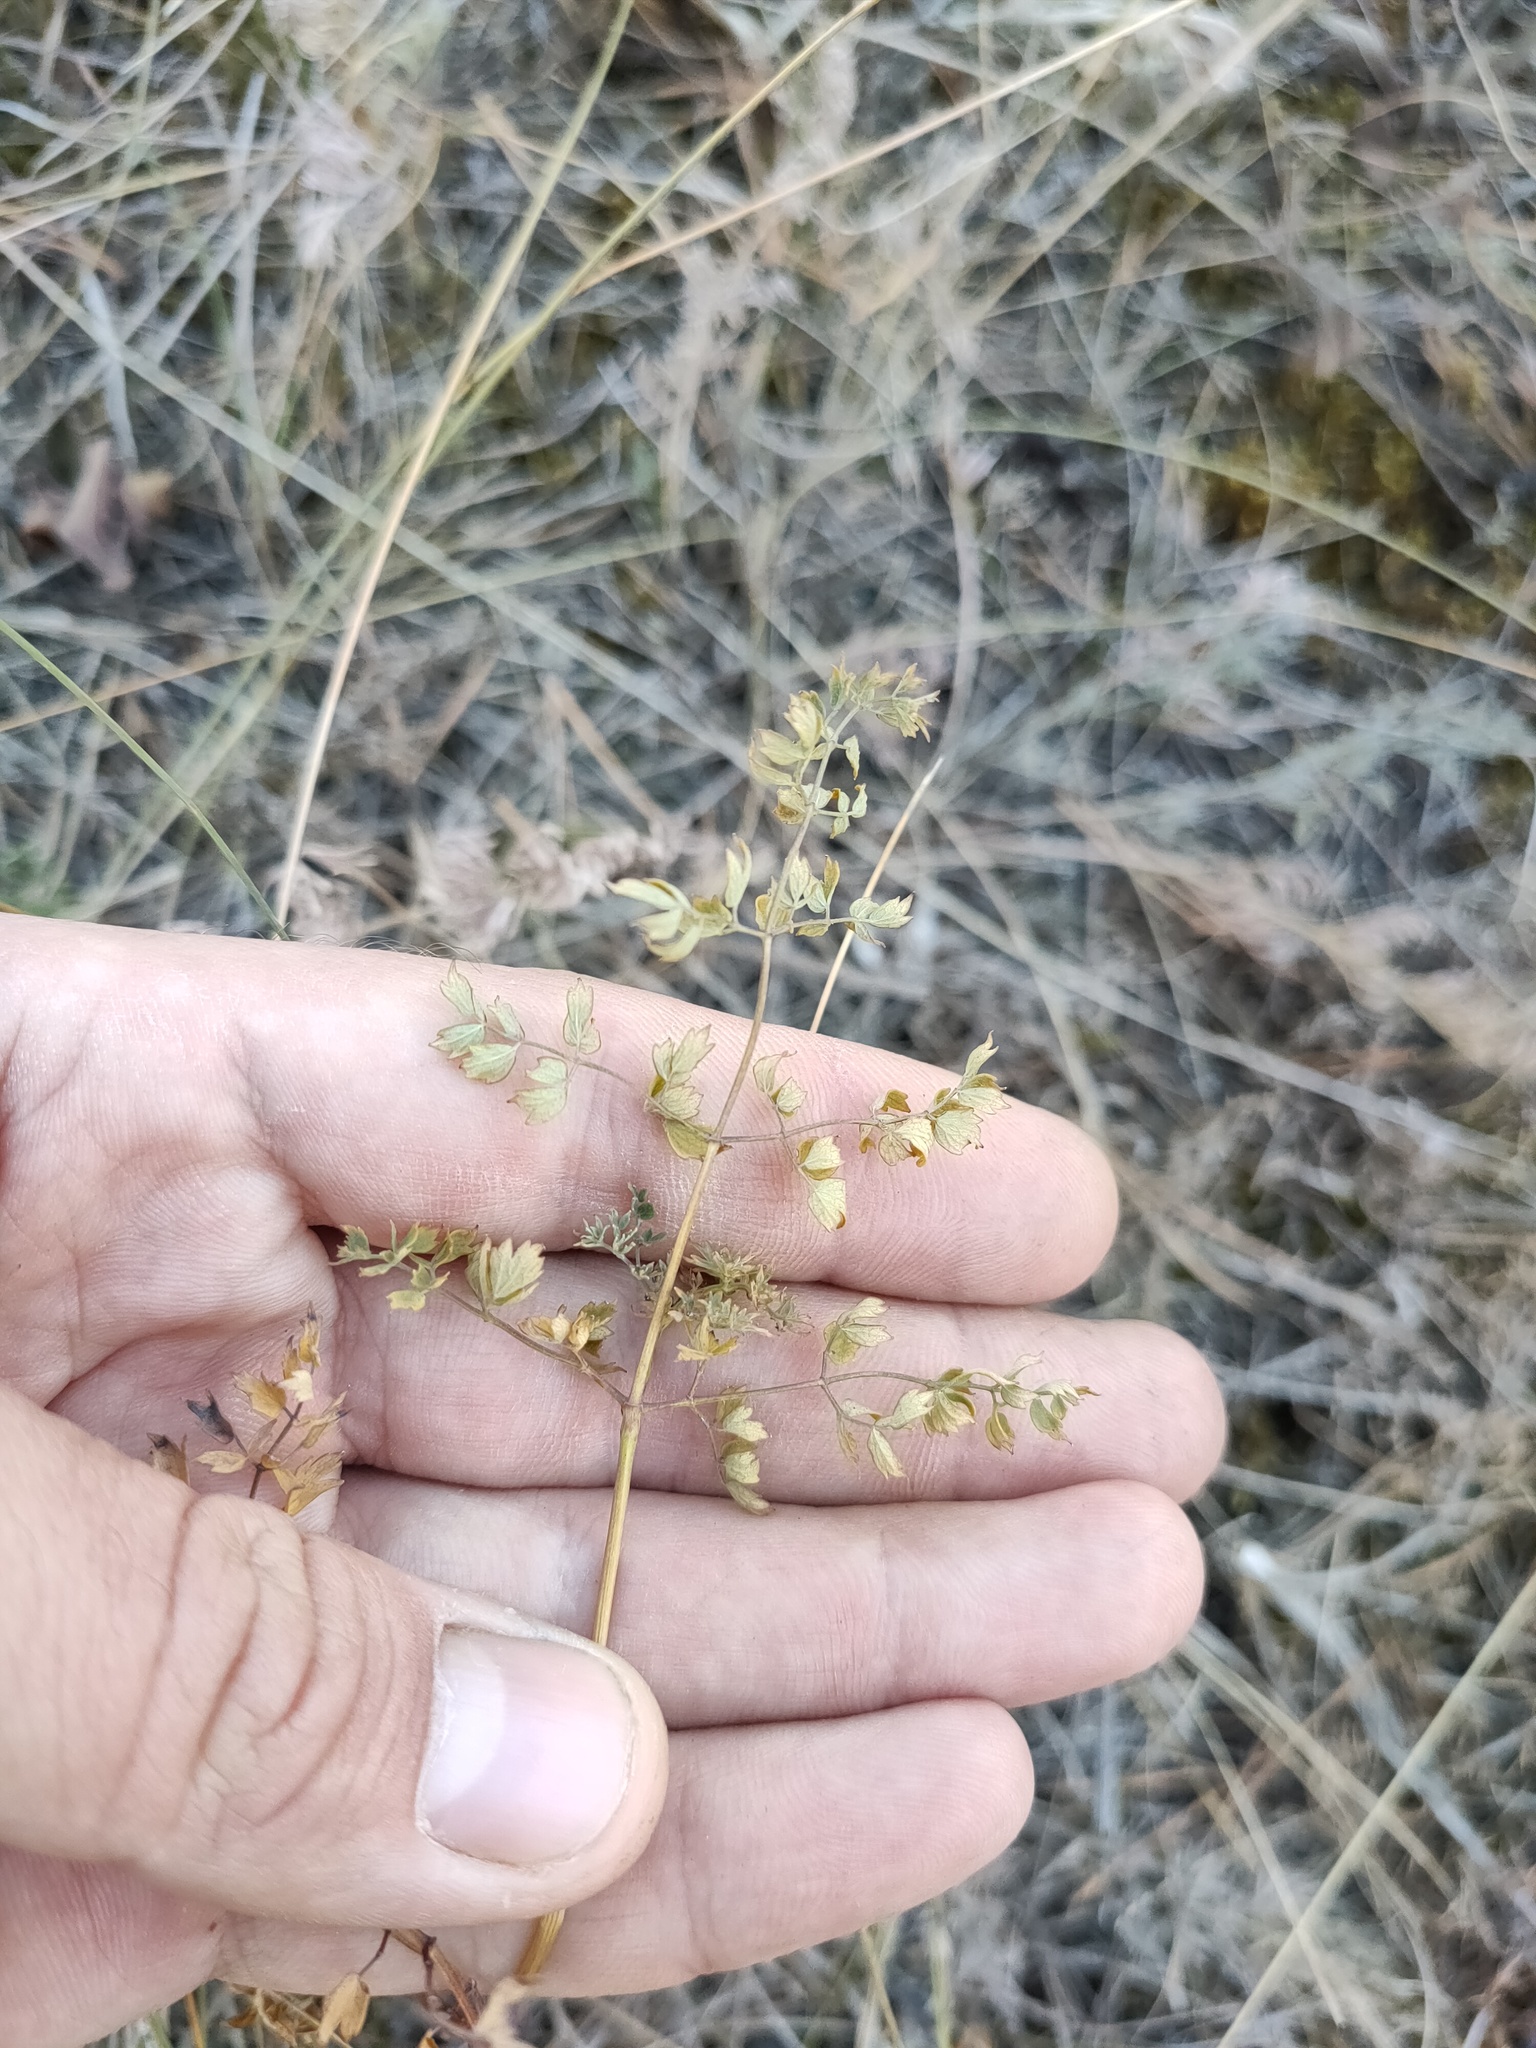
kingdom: Plantae
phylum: Tracheophyta
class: Magnoliopsida
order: Ranunculales
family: Ranunculaceae
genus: Thalictrum
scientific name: Thalictrum minus
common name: Lesser meadow-rue
